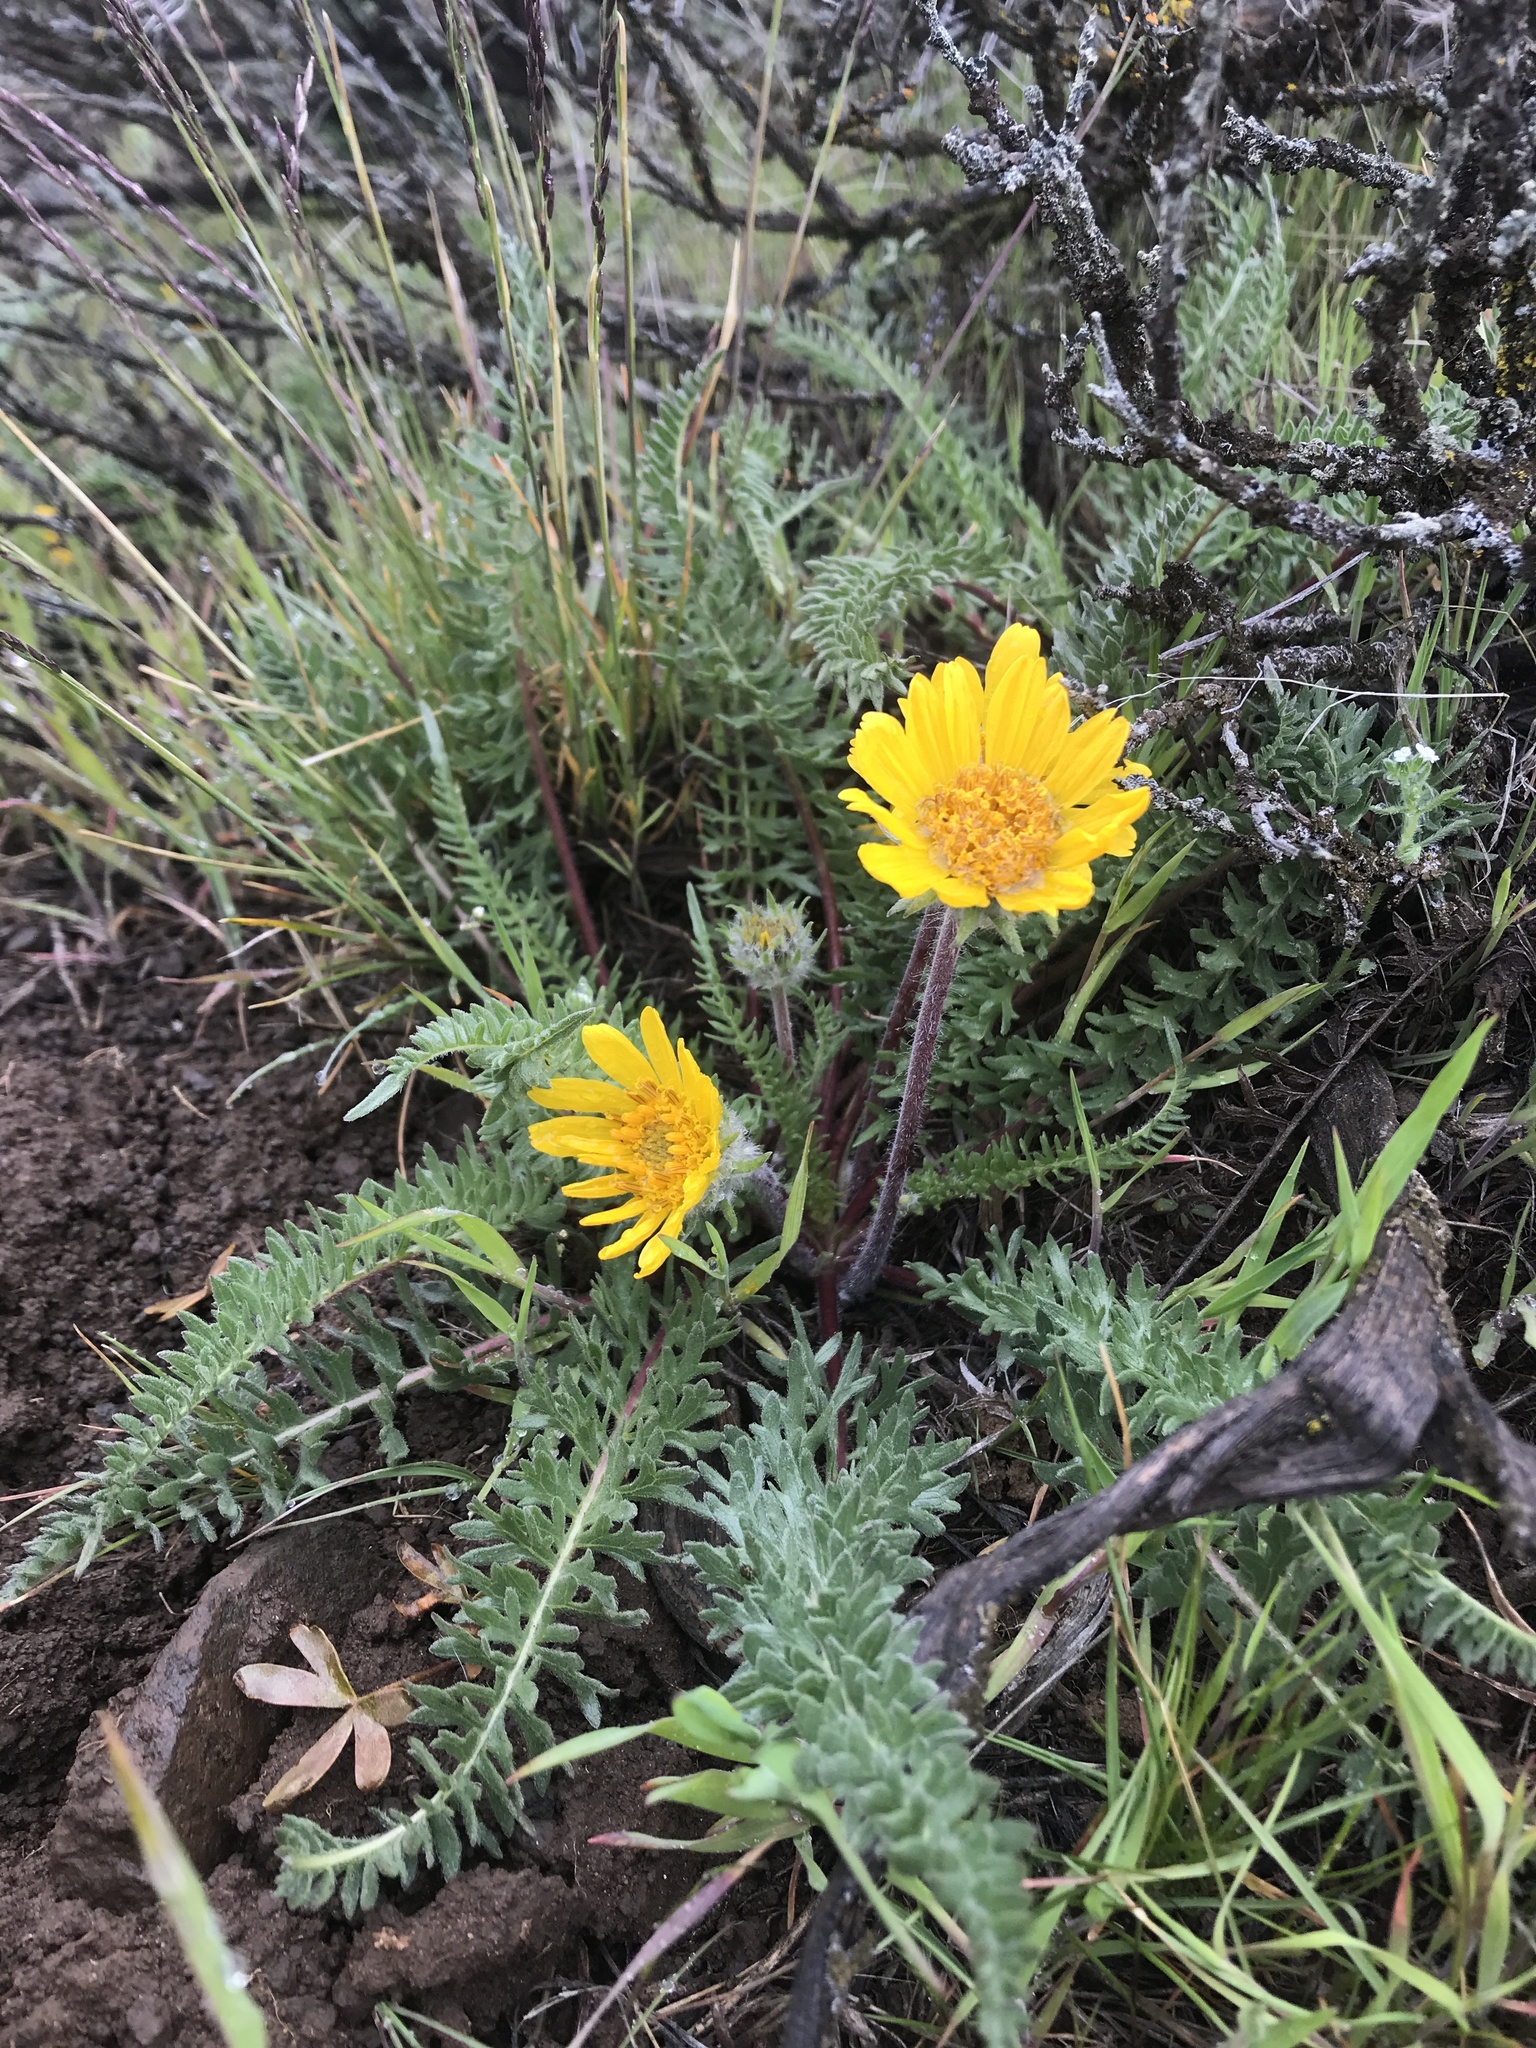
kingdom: Plantae
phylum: Tracheophyta
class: Magnoliopsida
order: Asterales
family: Asteraceae
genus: Balsamorhiza
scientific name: Balsamorhiza hookeri
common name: Hooker's balsamroot
